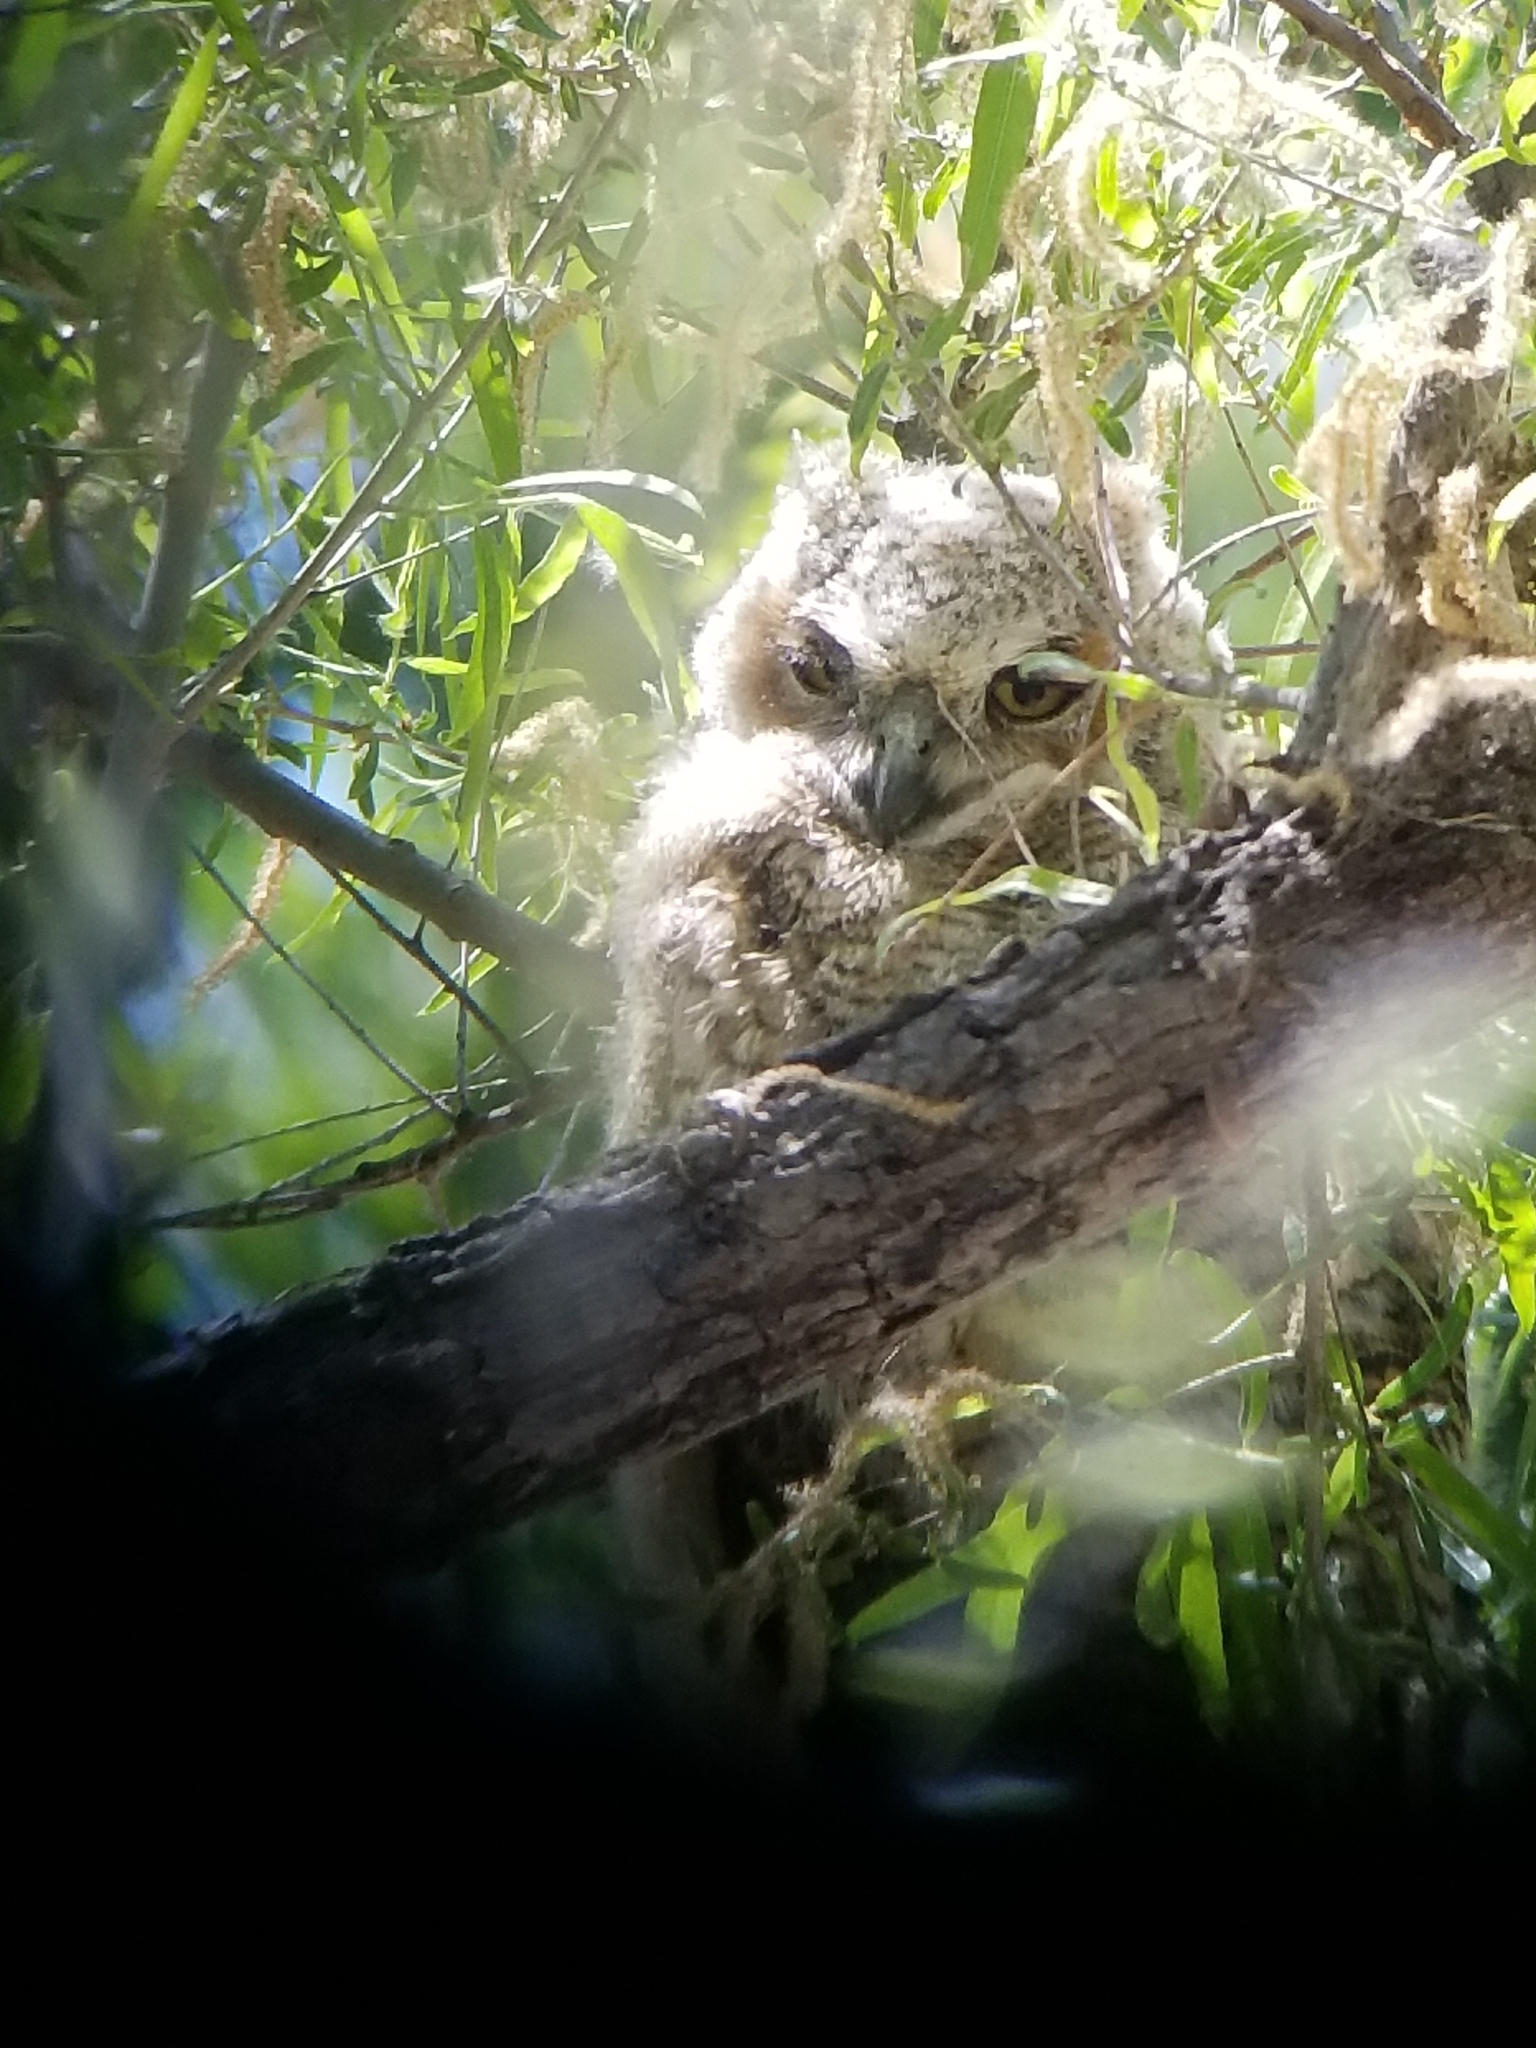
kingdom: Animalia
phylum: Chordata
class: Aves
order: Strigiformes
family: Strigidae
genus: Bubo
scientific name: Bubo virginianus
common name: Great horned owl
